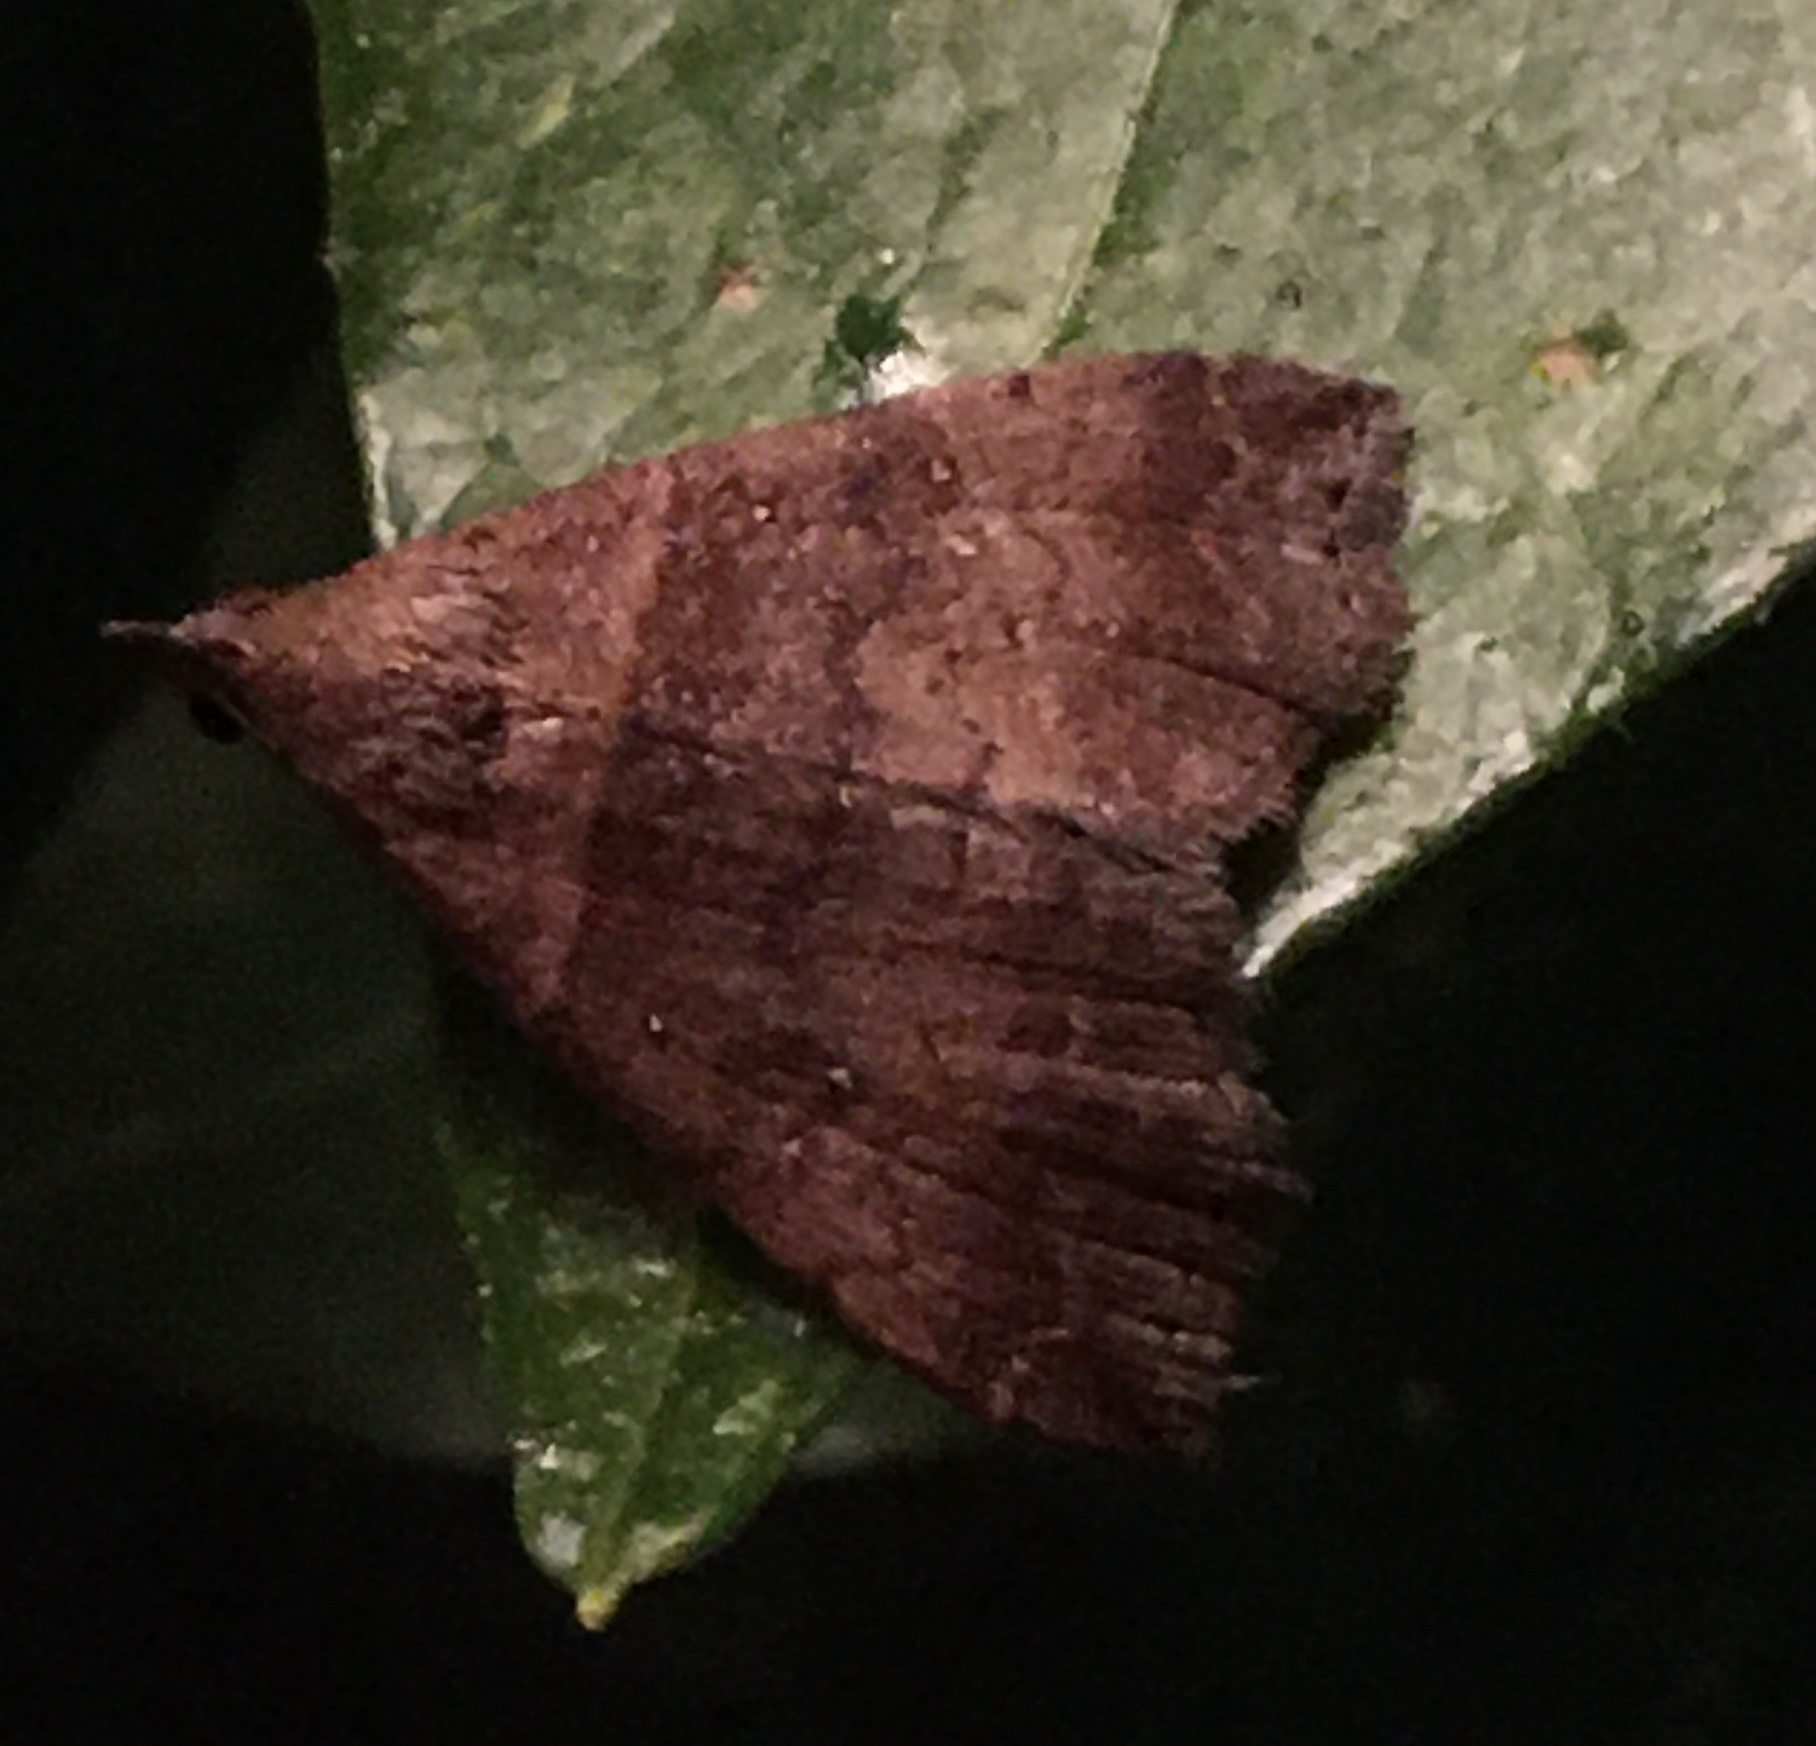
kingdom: Animalia
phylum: Arthropoda
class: Insecta
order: Lepidoptera
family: Erebidae
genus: Lascoria
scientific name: Lascoria ambigualis
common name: Ambiguous moth
